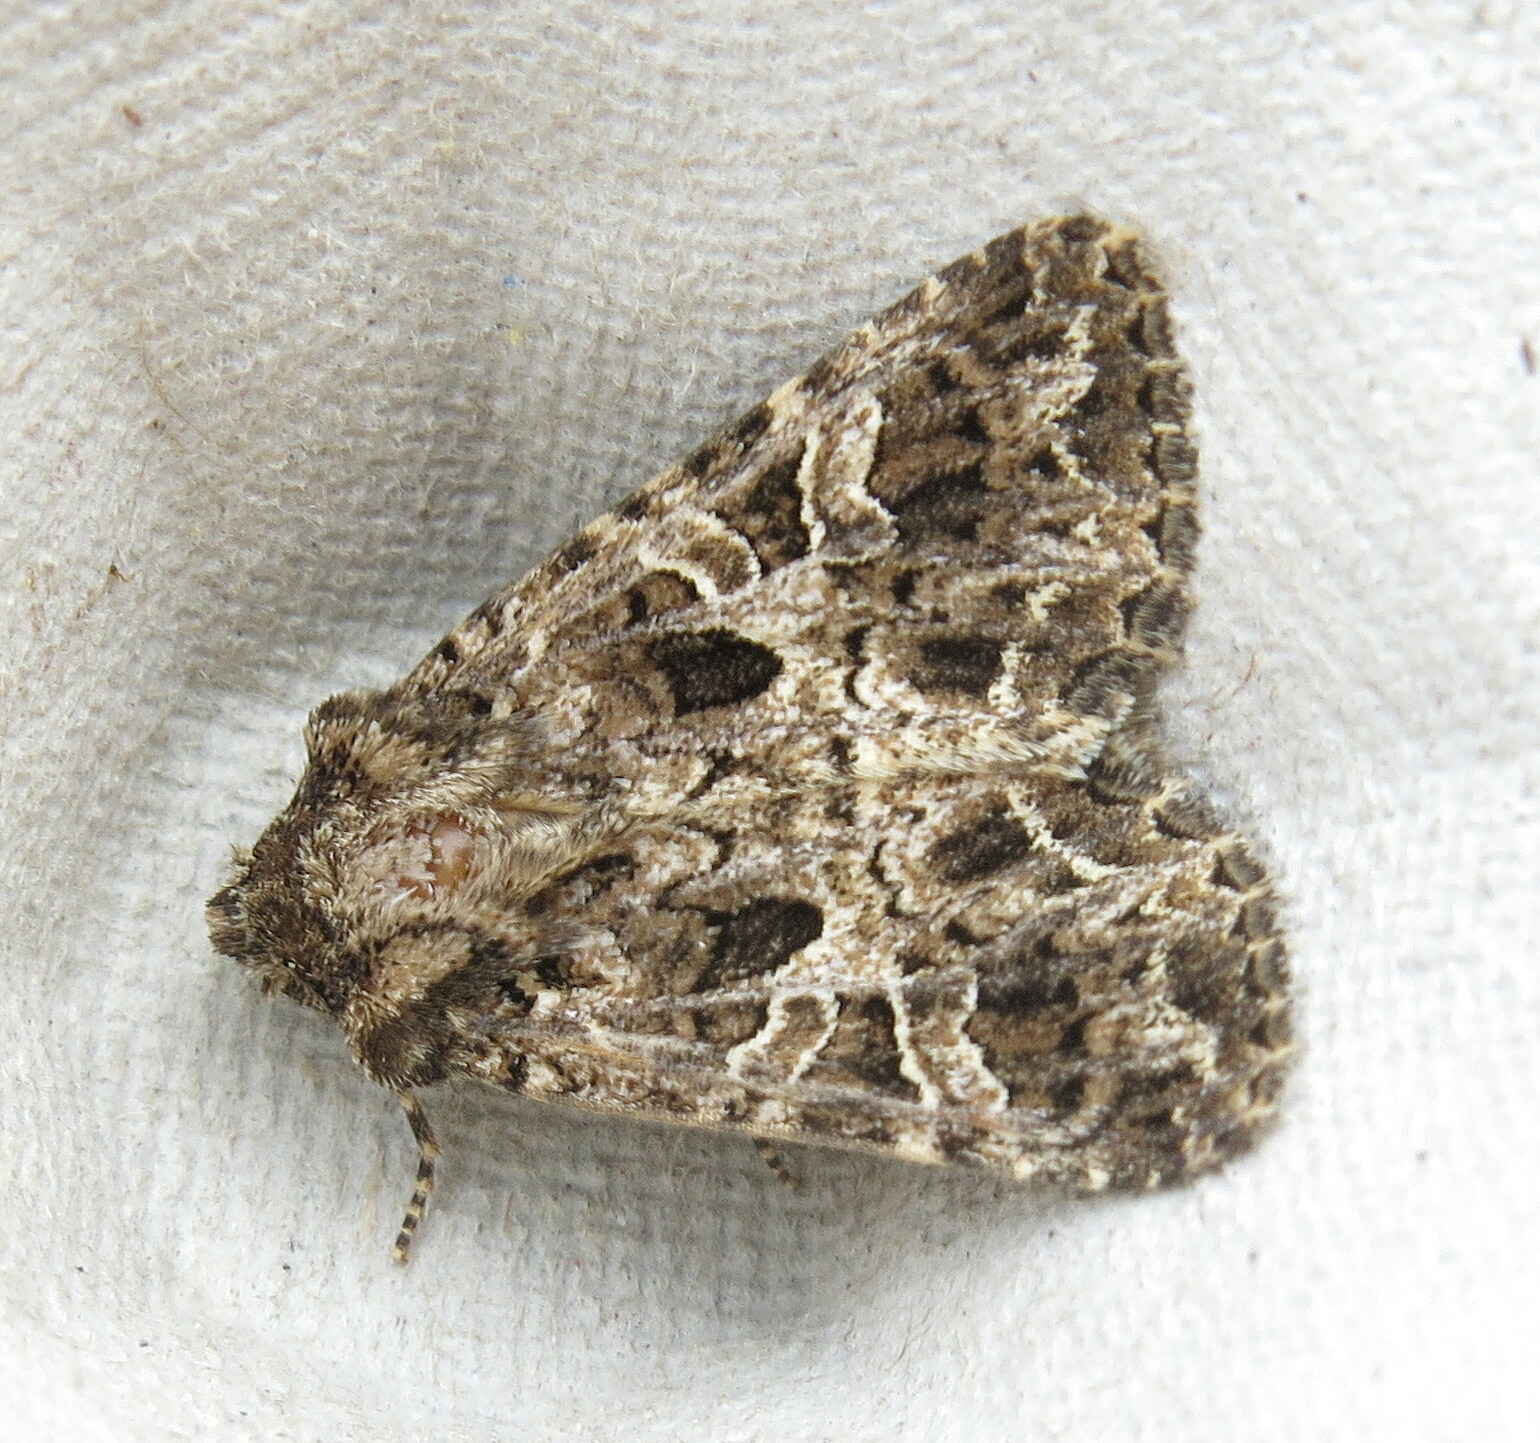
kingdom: Animalia
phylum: Arthropoda
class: Insecta
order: Lepidoptera
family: Noctuidae
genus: Hadena
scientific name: Hadena bicruris
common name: Lychnis
